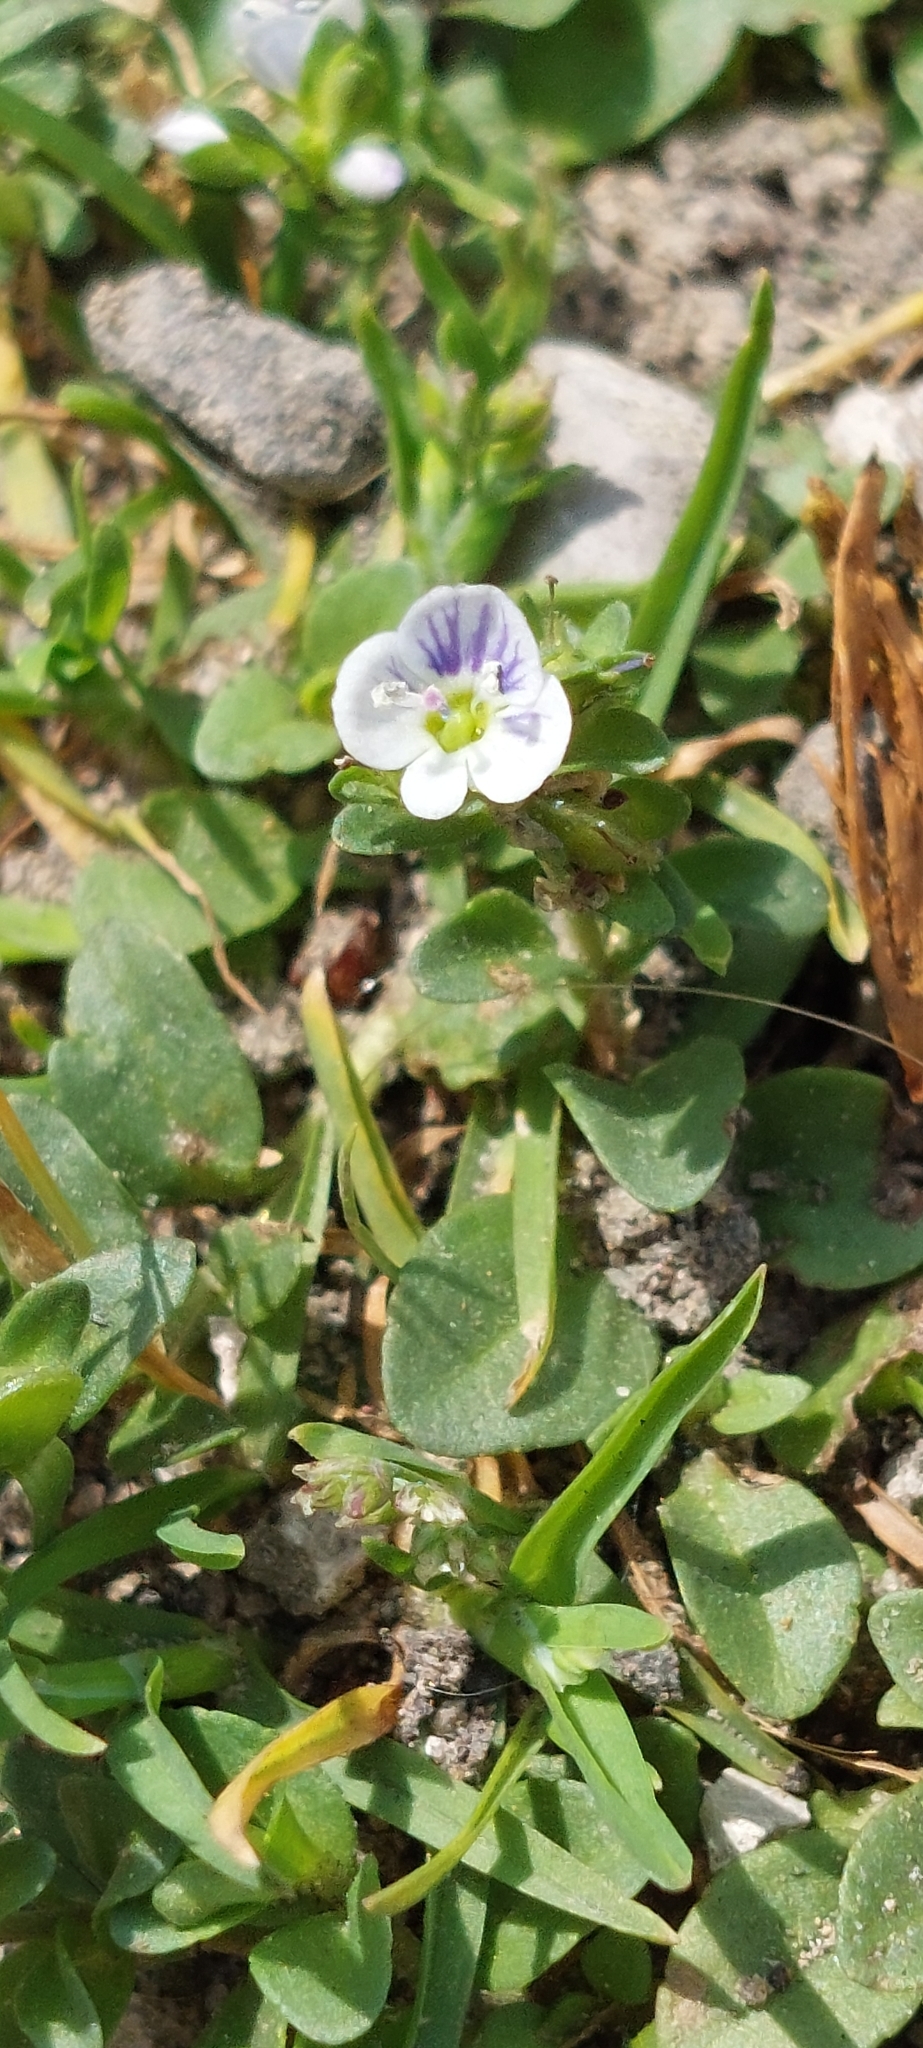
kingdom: Plantae
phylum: Tracheophyta
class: Magnoliopsida
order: Lamiales
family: Plantaginaceae
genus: Veronica
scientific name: Veronica serpyllifolia
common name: Thyme-leaved speedwell
